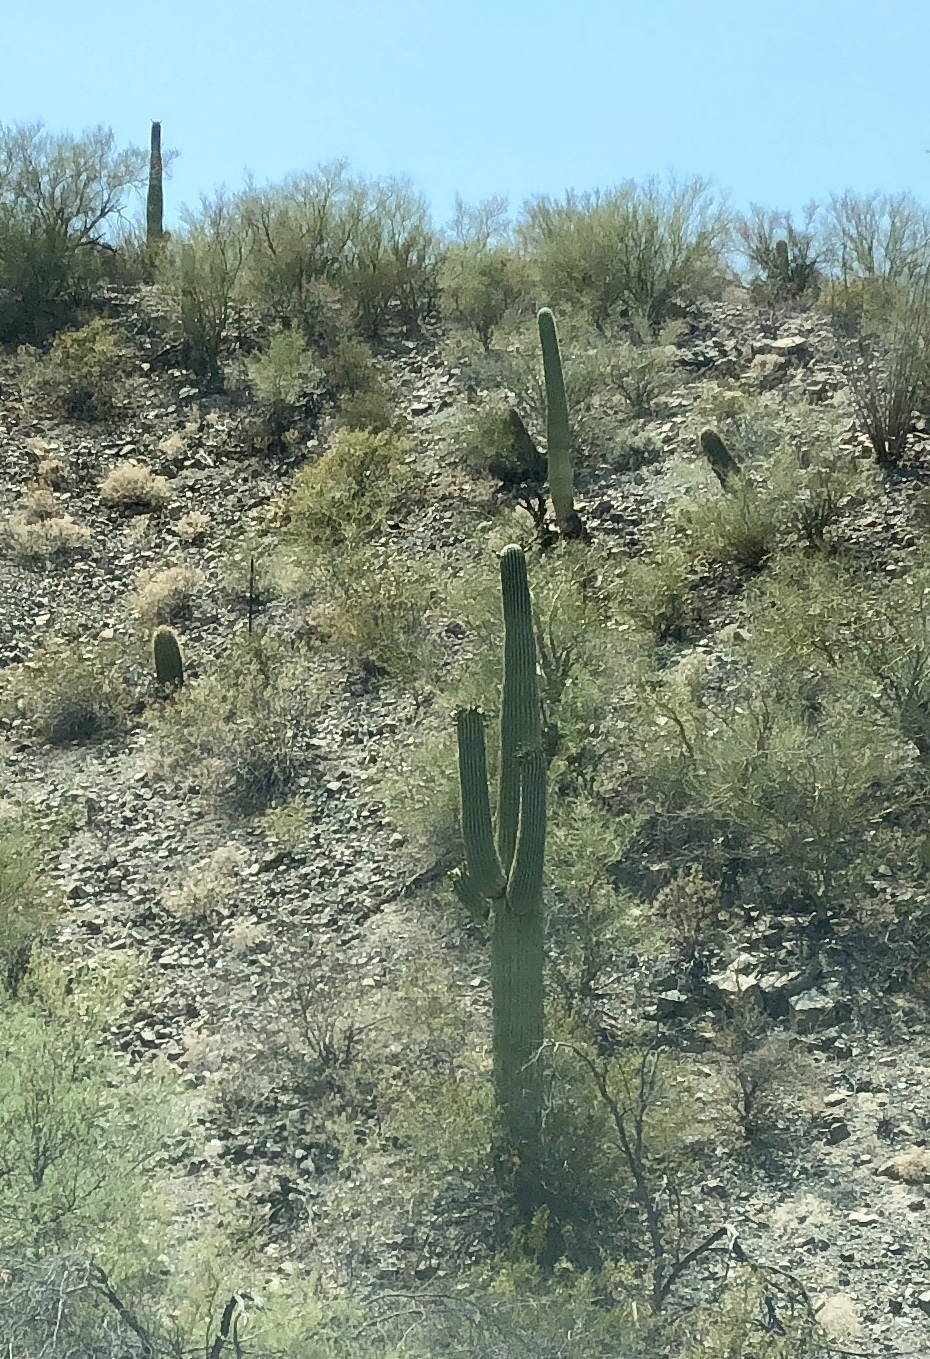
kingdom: Plantae
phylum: Tracheophyta
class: Magnoliopsida
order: Caryophyllales
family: Cactaceae
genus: Carnegiea
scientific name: Carnegiea gigantea
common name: Saguaro
